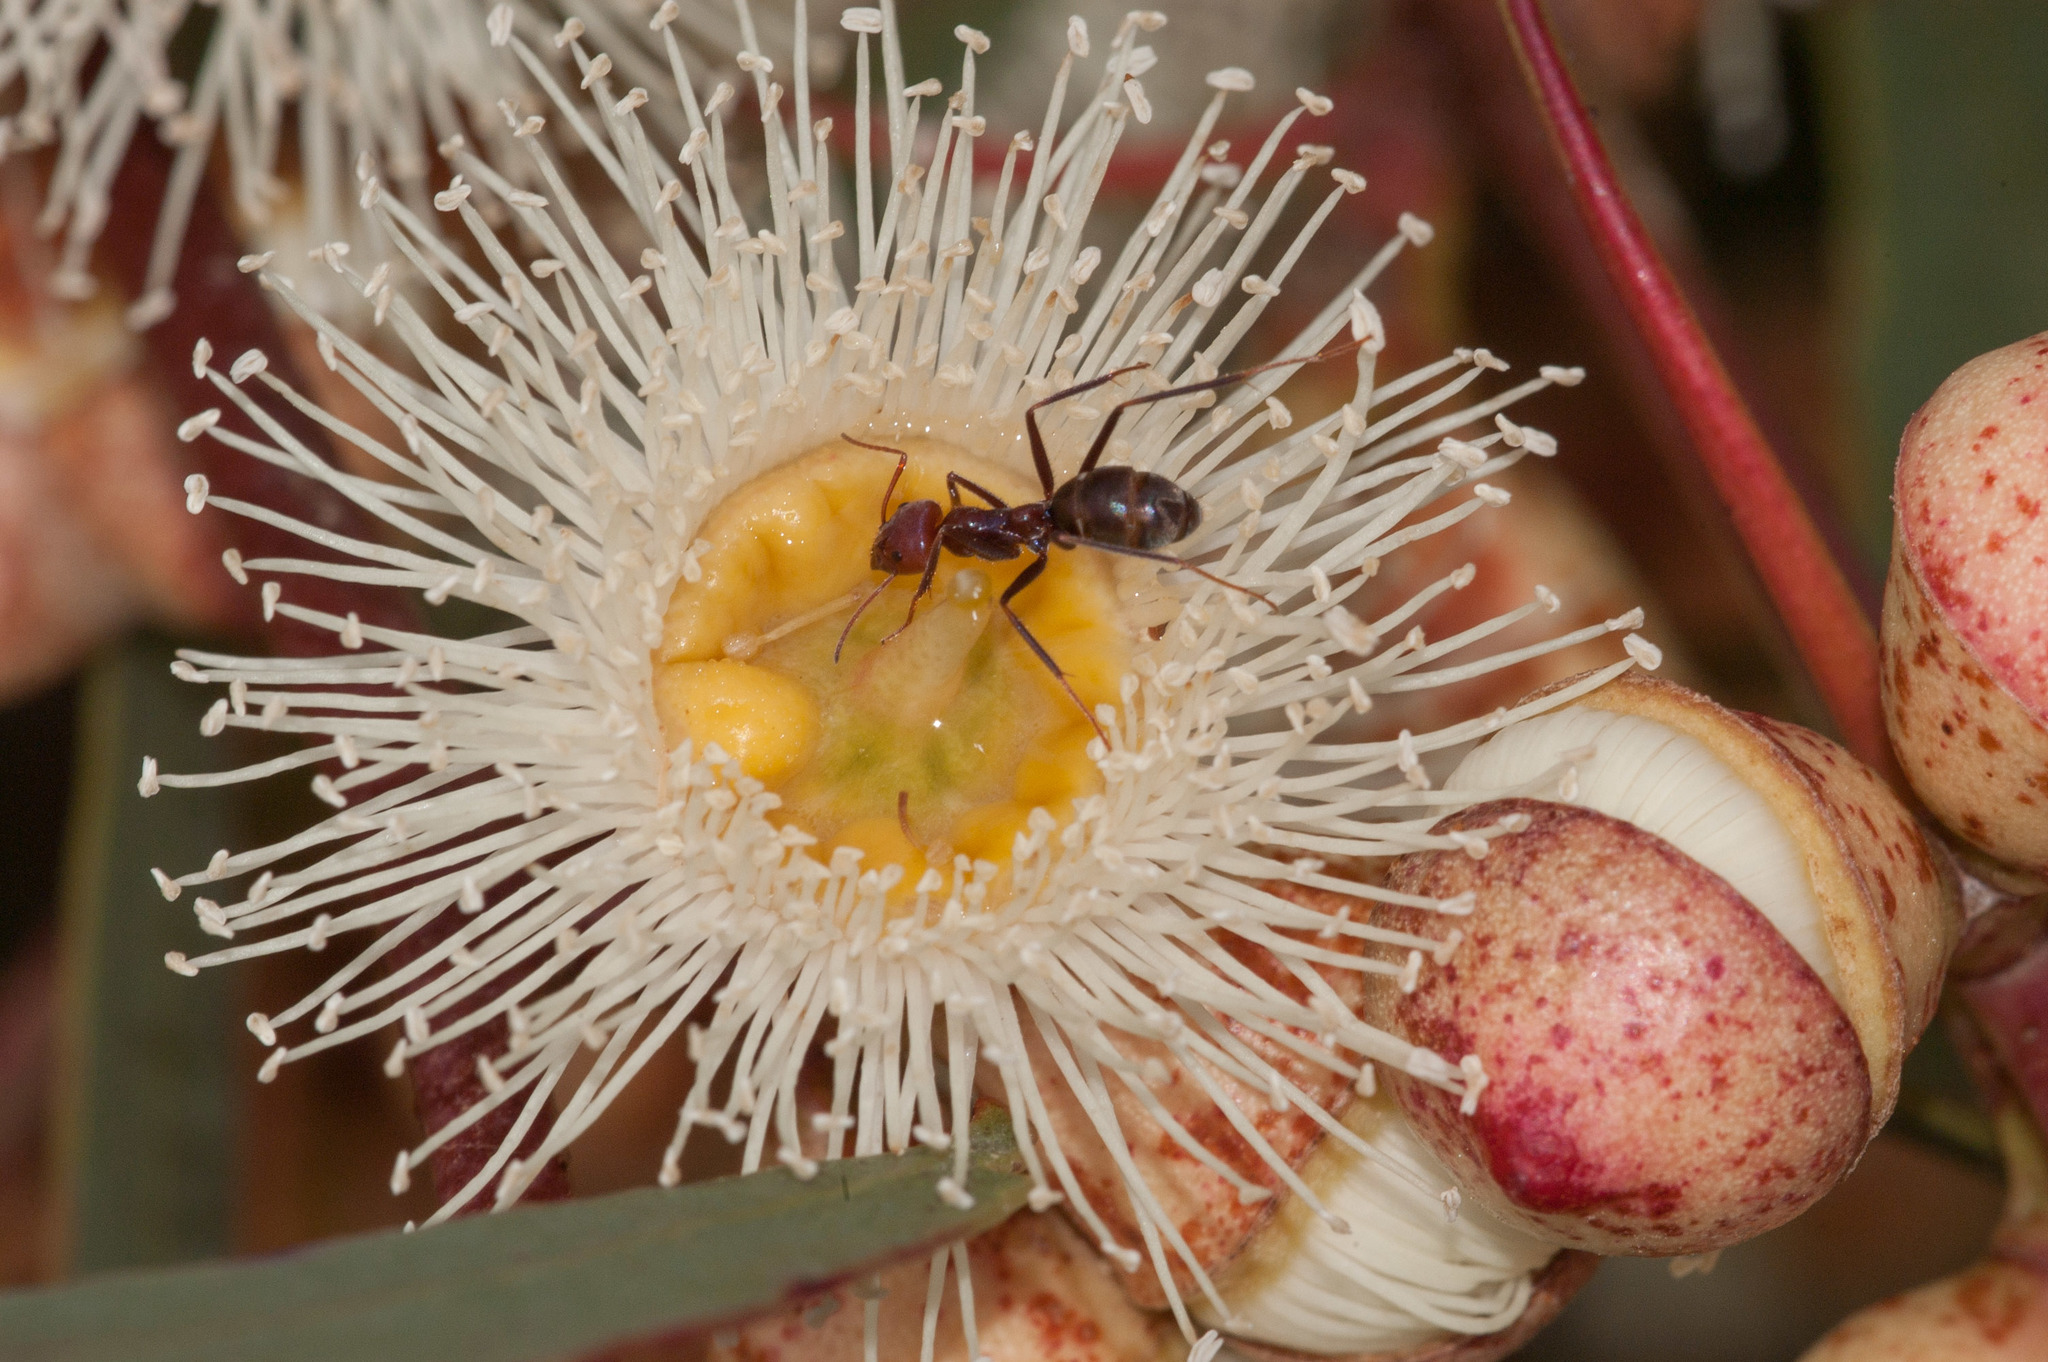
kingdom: Animalia
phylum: Arthropoda
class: Insecta
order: Hymenoptera
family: Formicidae
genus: Iridomyrmex
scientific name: Iridomyrmex purpureus
